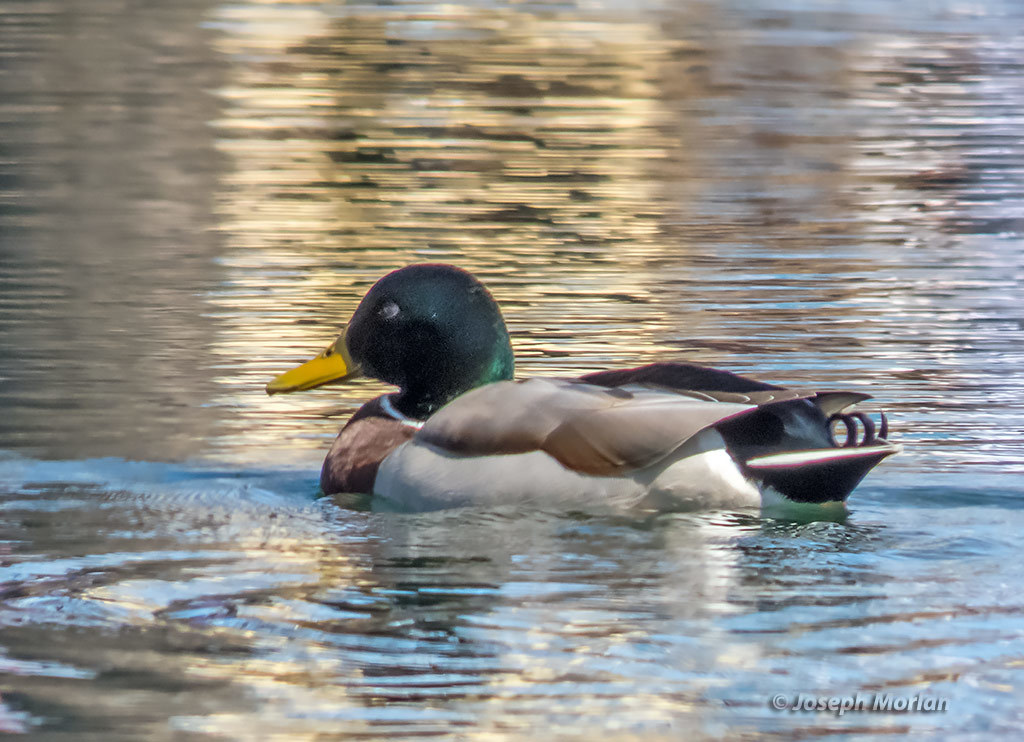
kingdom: Animalia
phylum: Chordata
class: Aves
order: Anseriformes
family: Anatidae
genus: Anas
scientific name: Anas platyrhynchos
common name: Mallard
